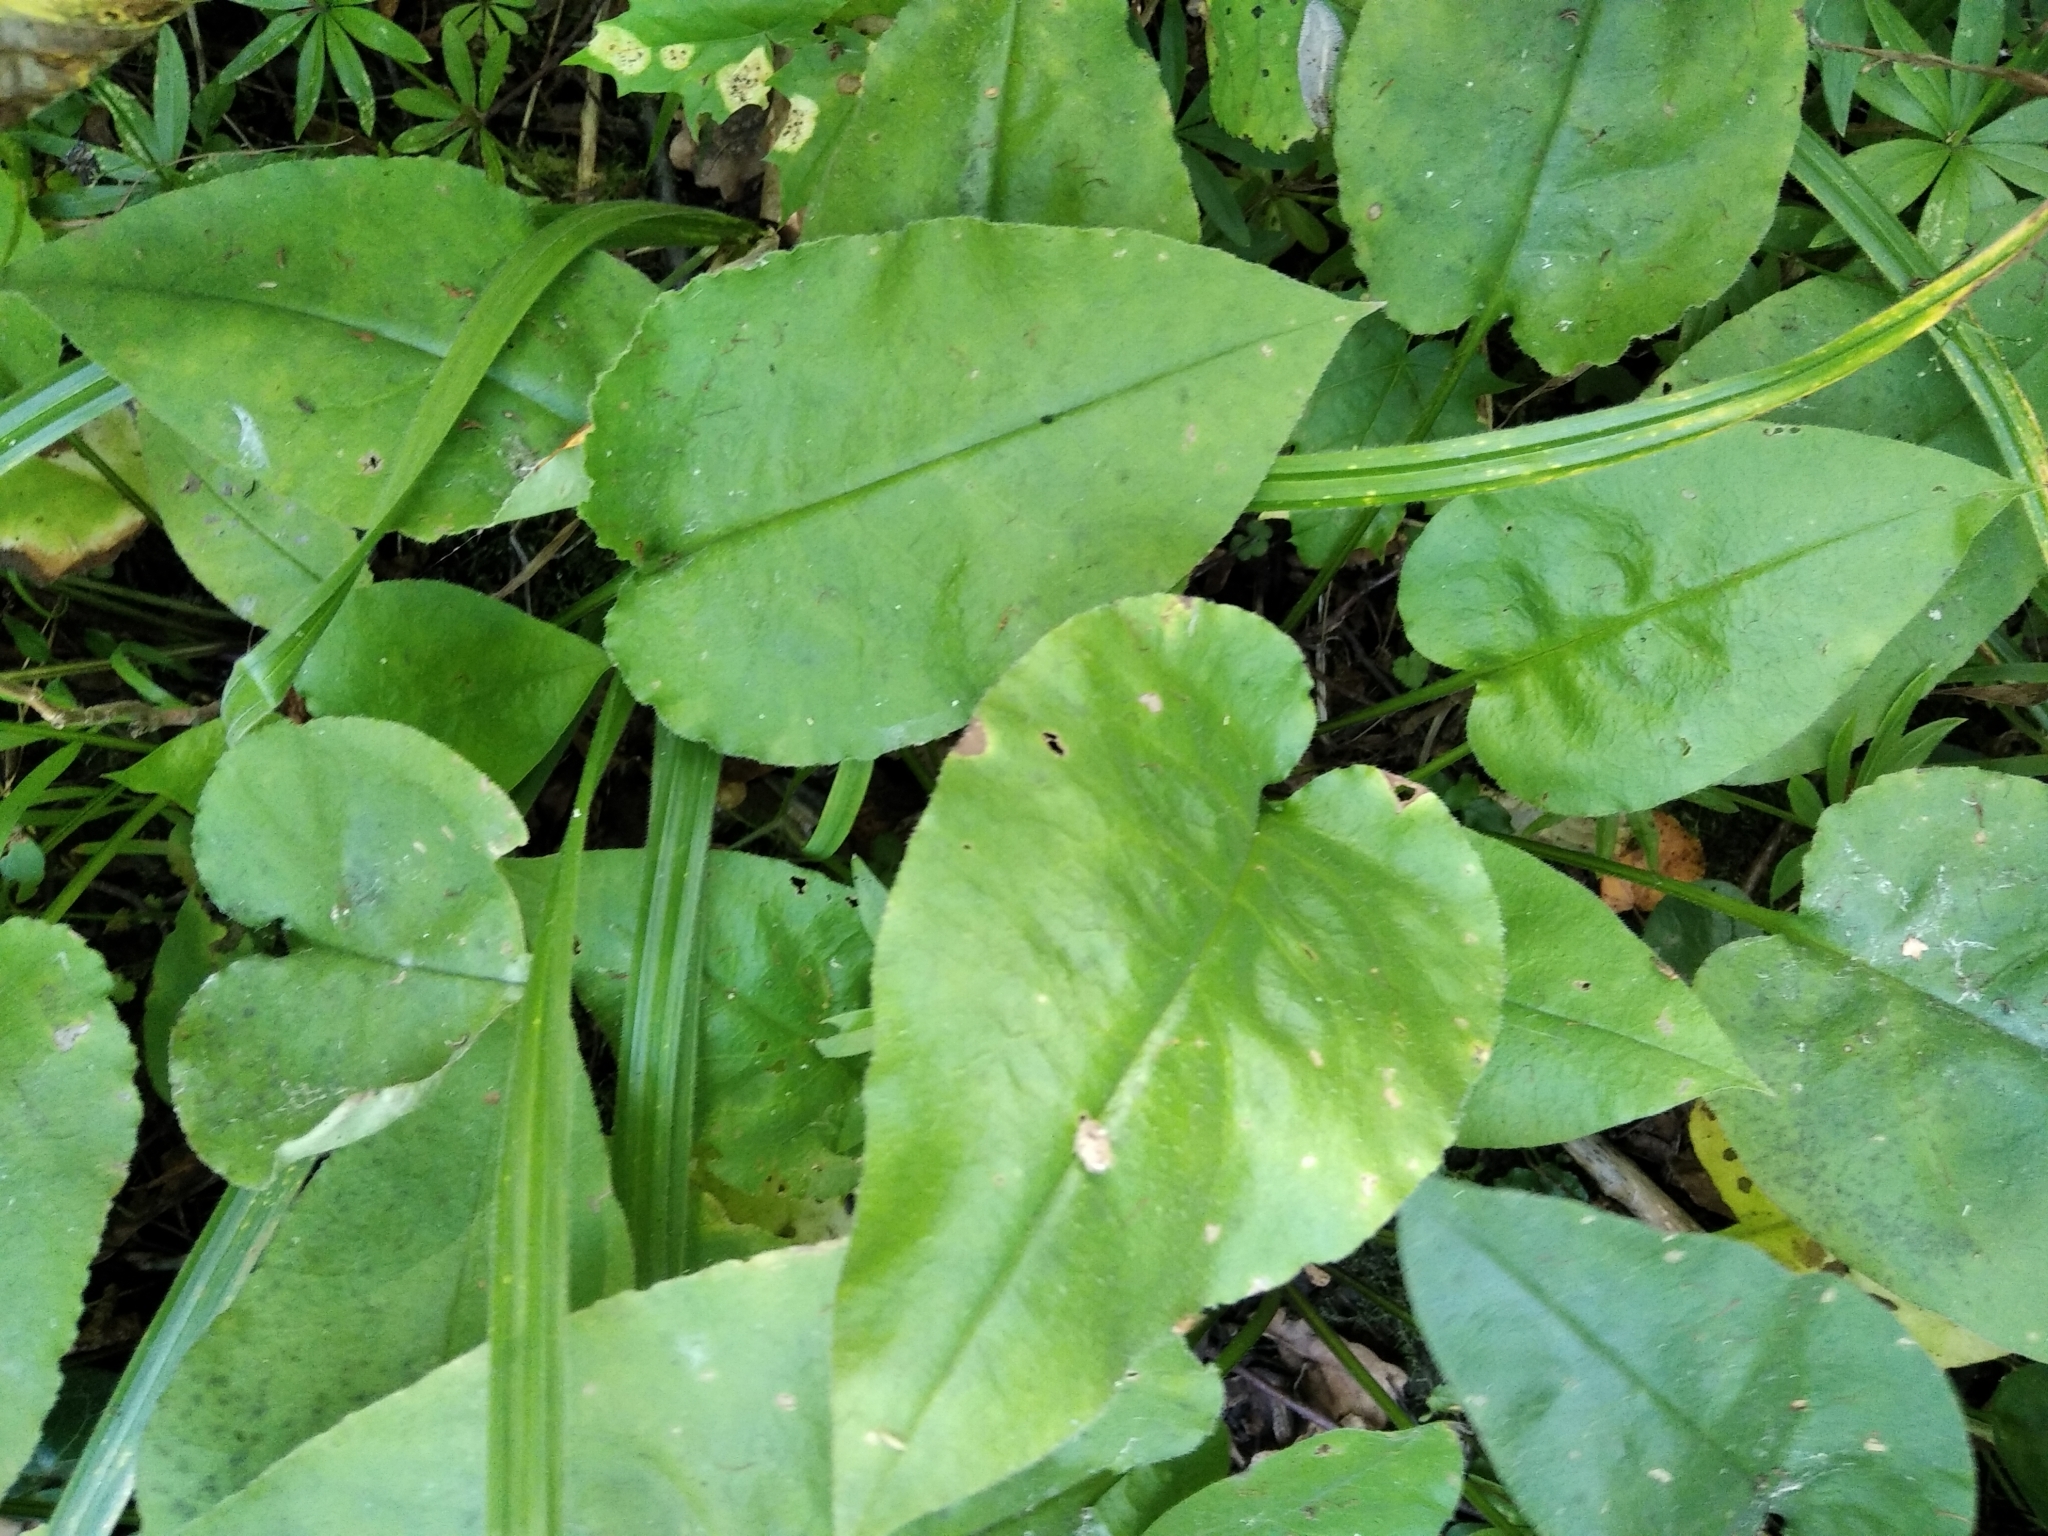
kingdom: Plantae
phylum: Tracheophyta
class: Magnoliopsida
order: Boraginales
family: Boraginaceae
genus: Pulmonaria
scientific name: Pulmonaria obscura
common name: Suffolk lungwort
